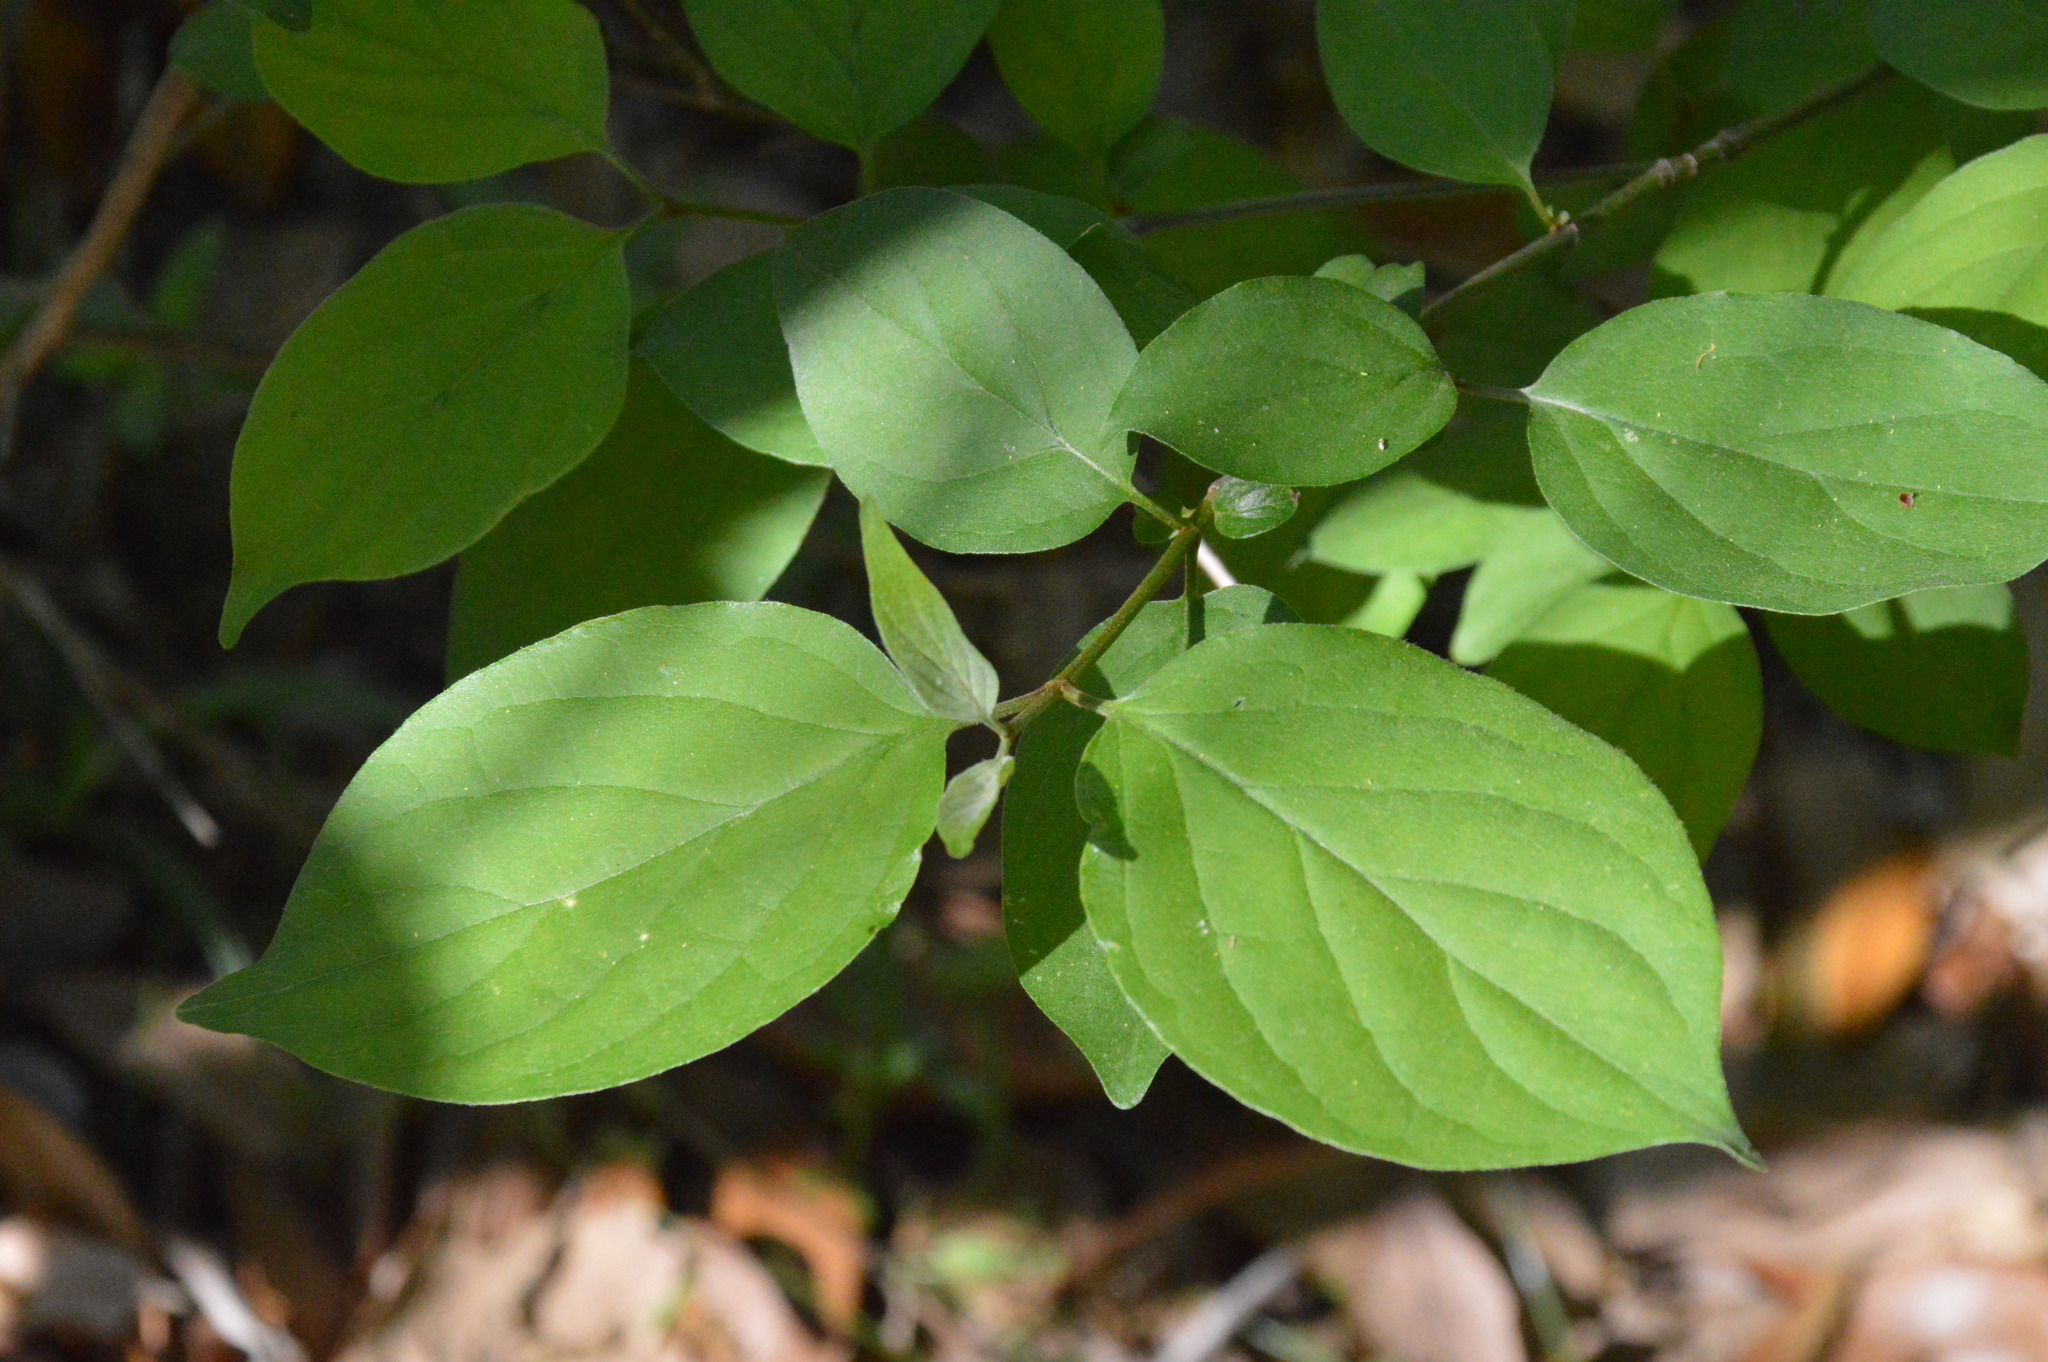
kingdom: Plantae
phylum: Tracheophyta
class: Magnoliopsida
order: Cornales
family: Cornaceae
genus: Cornus
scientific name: Cornus drummondii
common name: Rough-leaf dogwood
